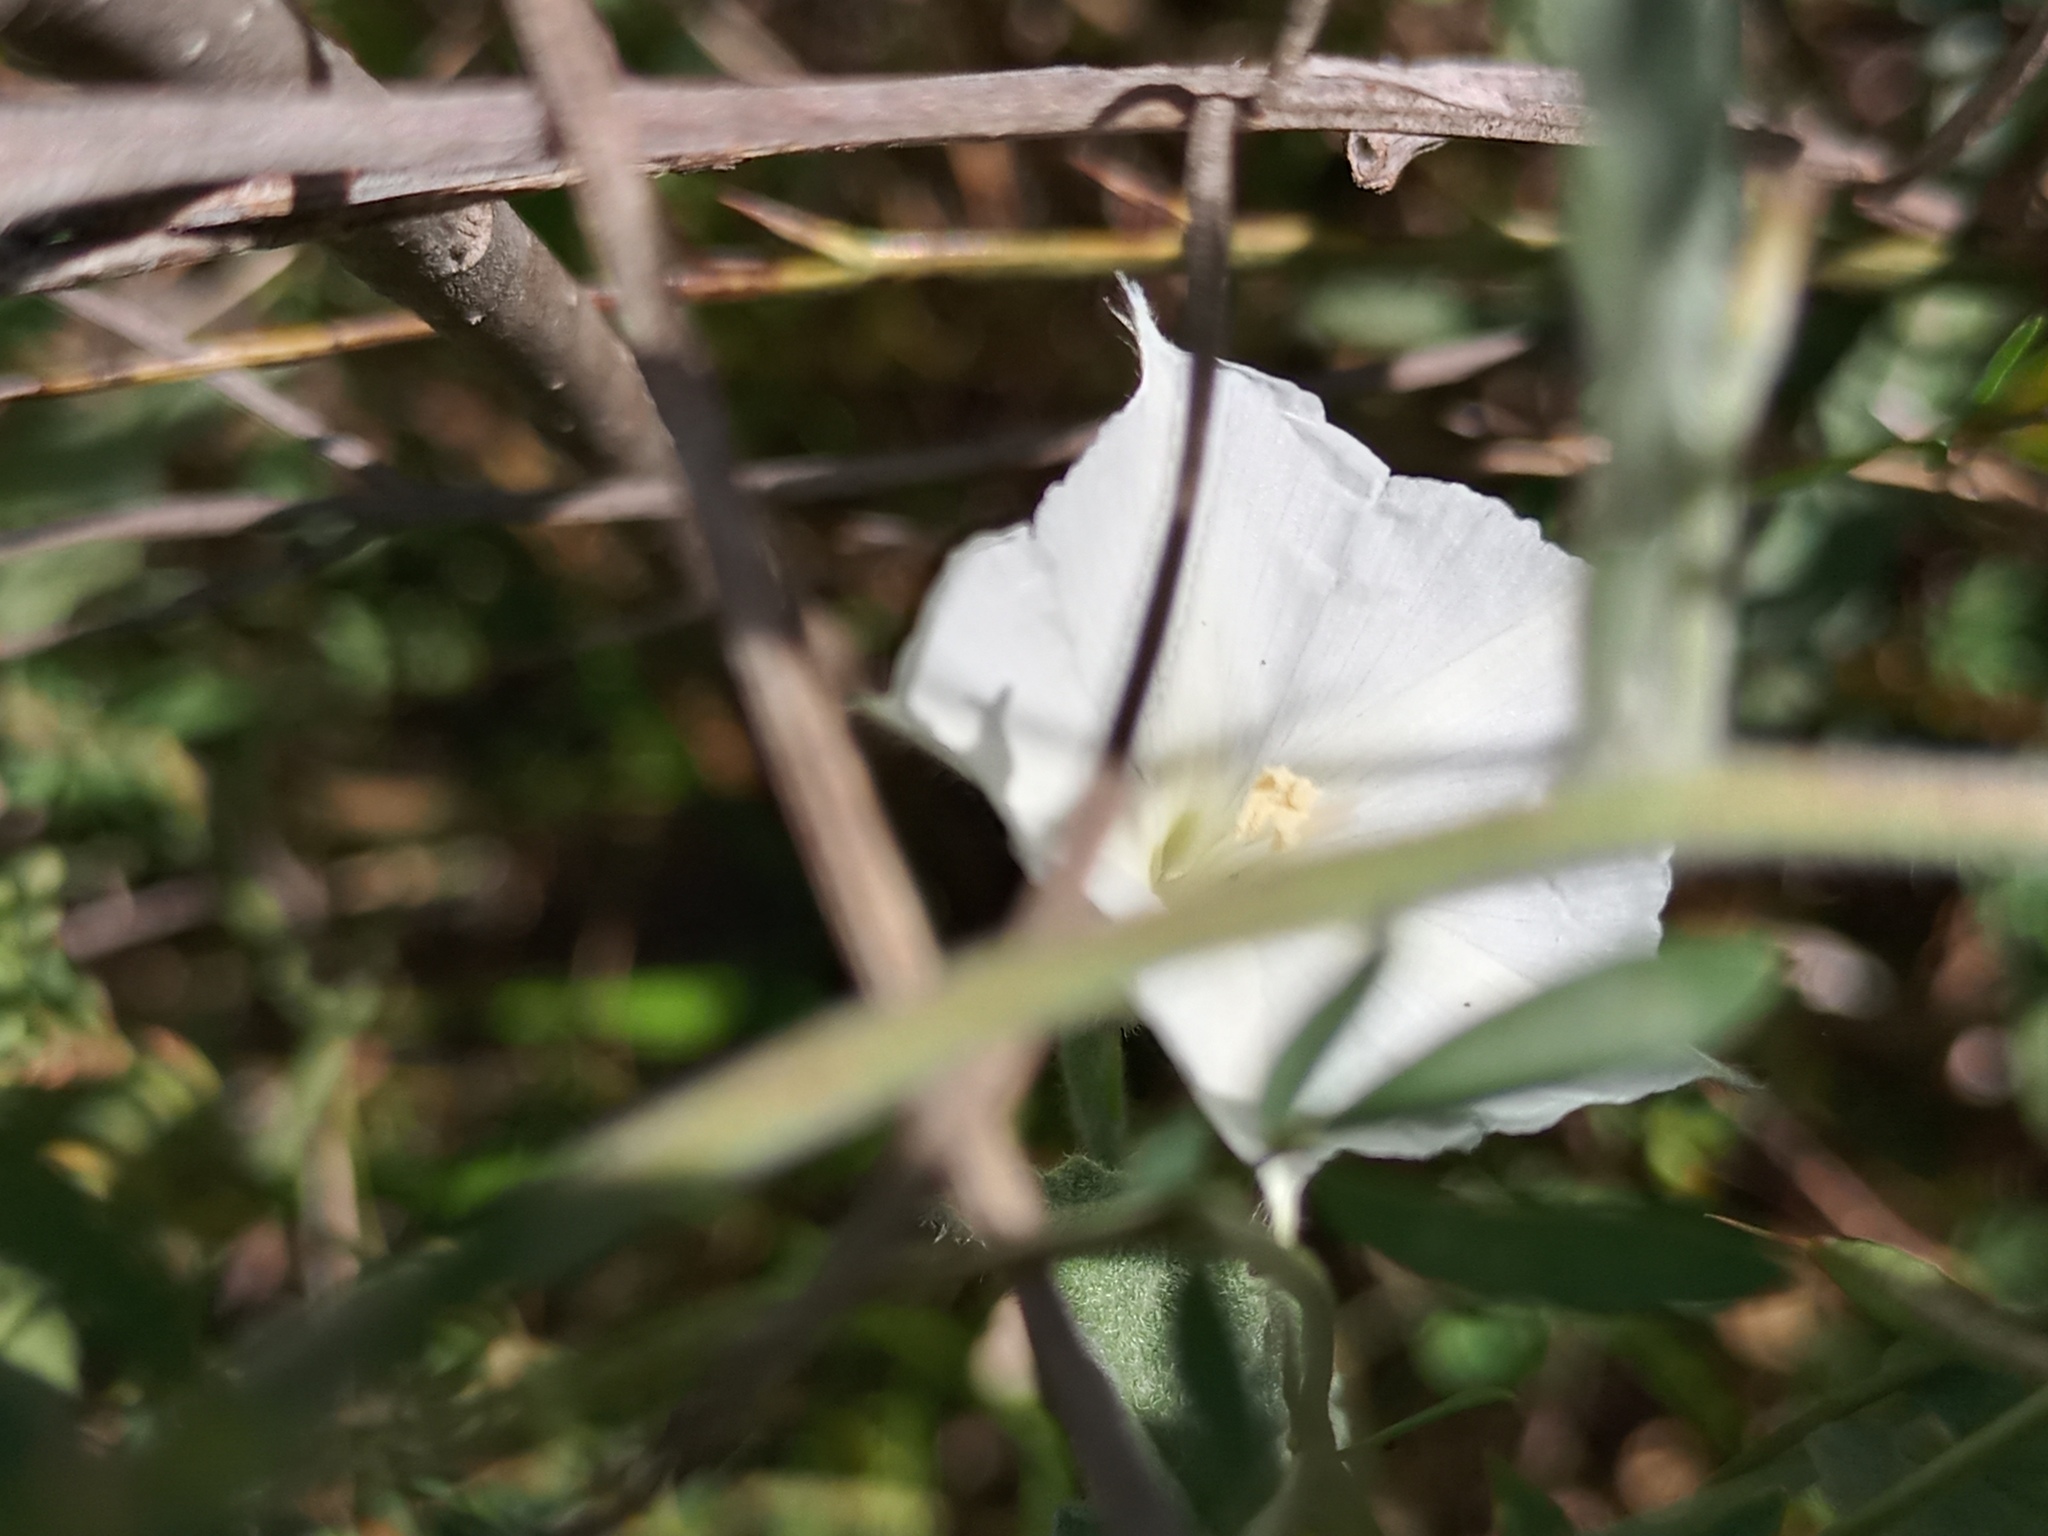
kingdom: Plantae
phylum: Tracheophyta
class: Magnoliopsida
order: Solanales
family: Convolvulaceae
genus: Convolvulus
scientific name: Convolvulus hermanniae
